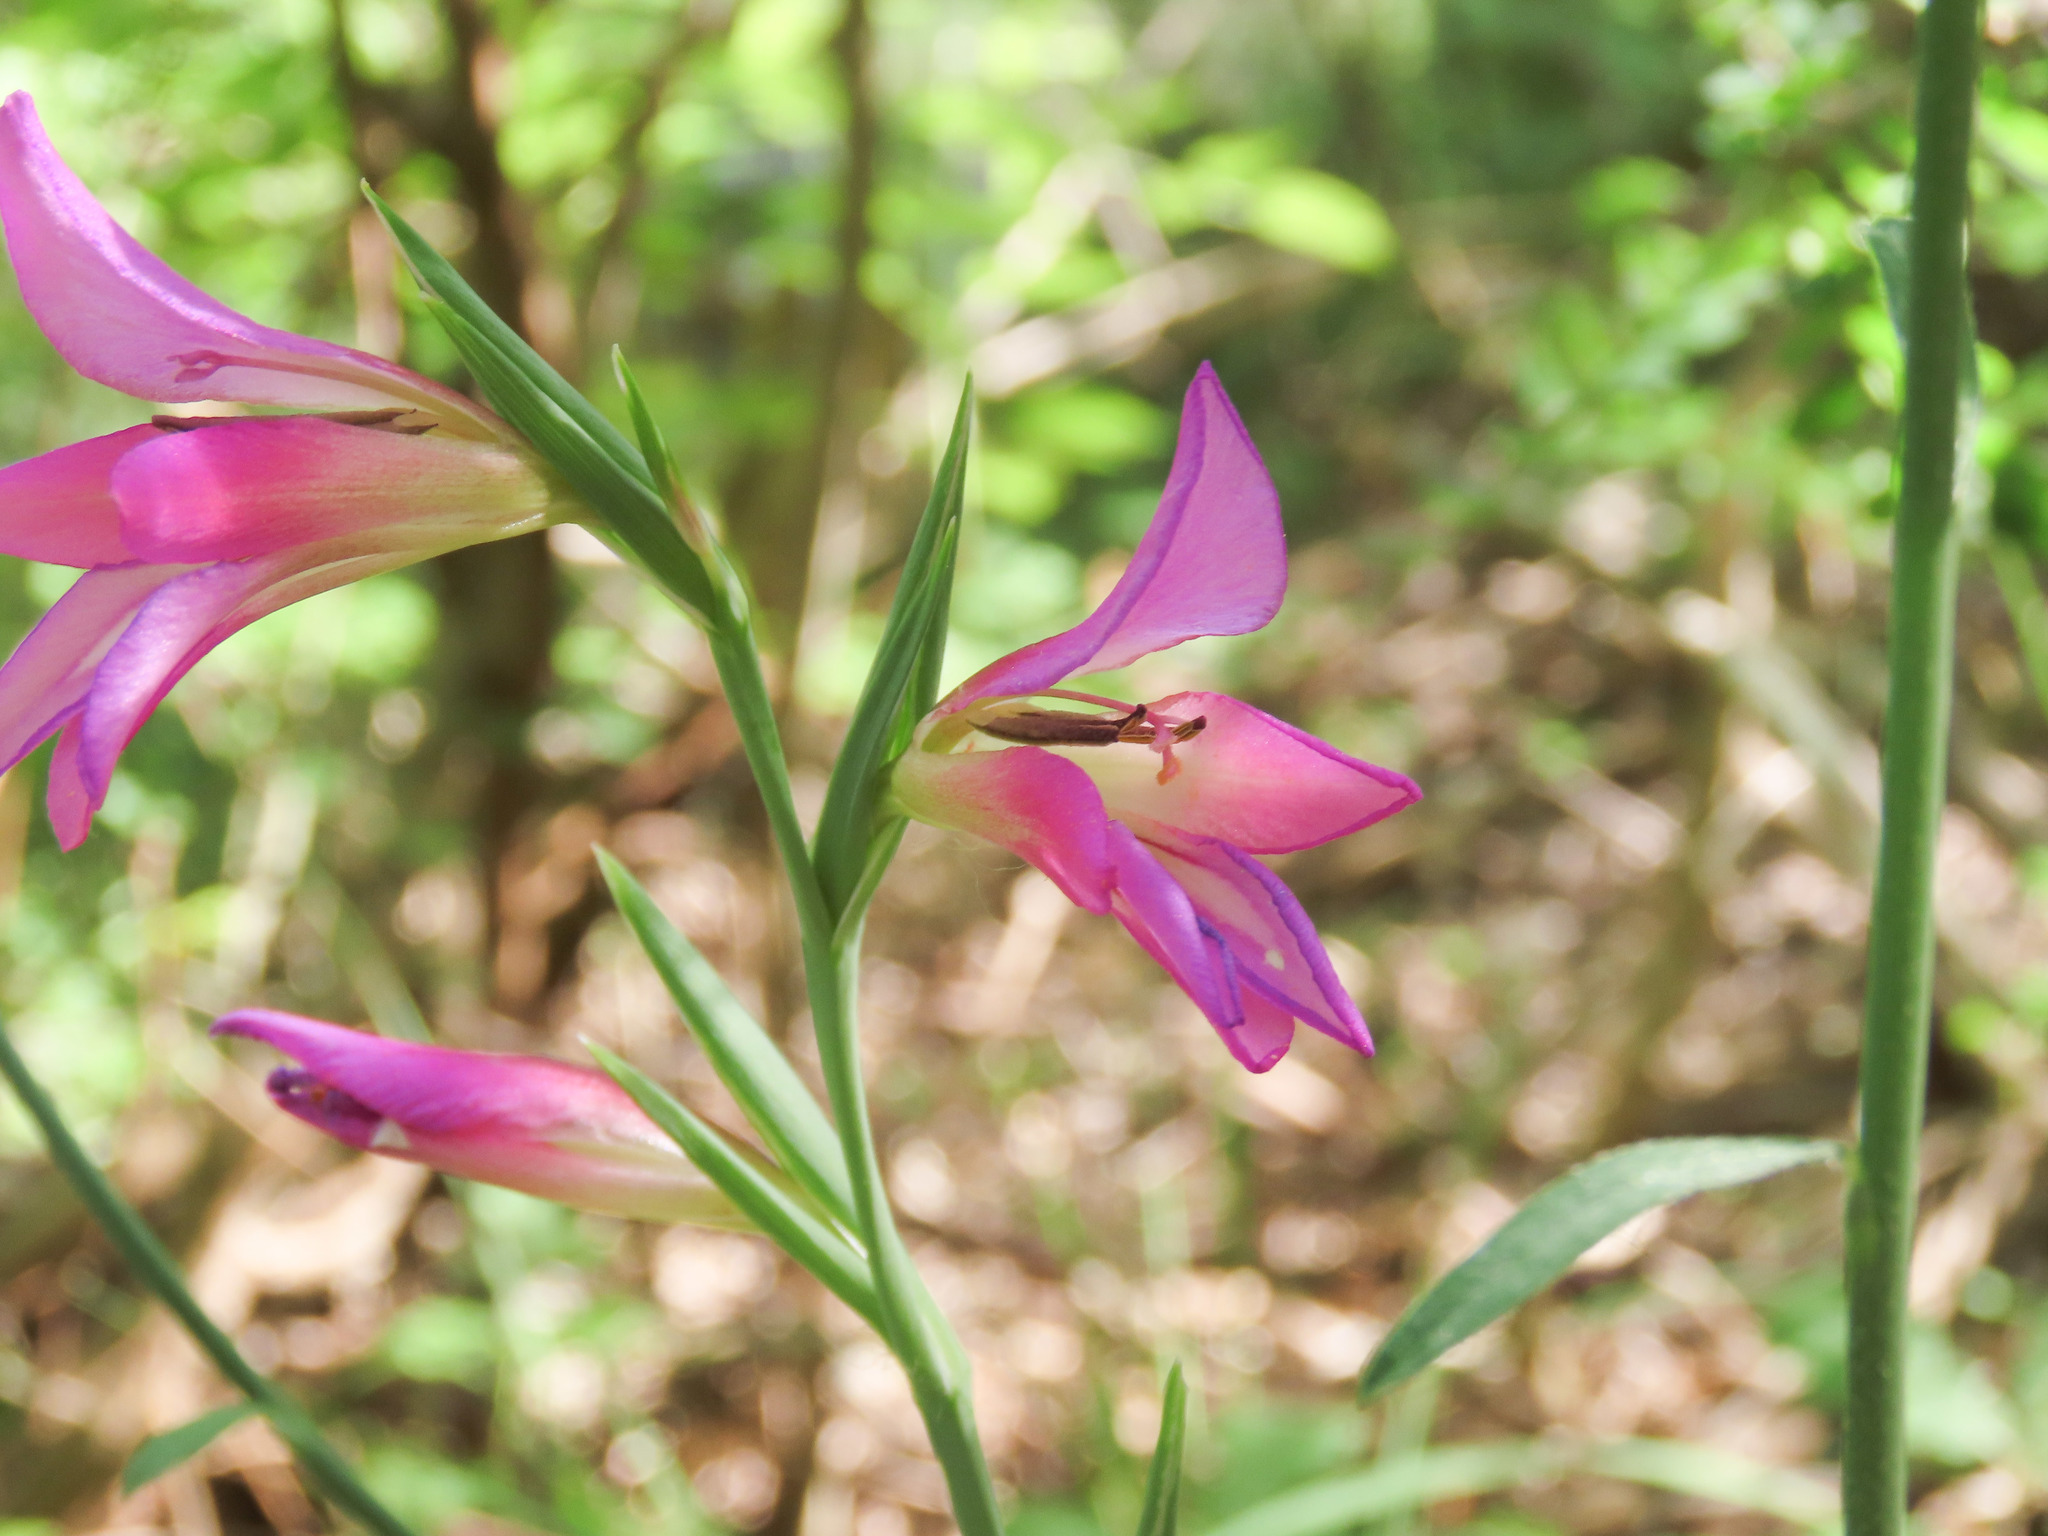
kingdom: Plantae
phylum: Tracheophyta
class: Liliopsida
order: Asparagales
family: Iridaceae
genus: Gladiolus
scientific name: Gladiolus italicus
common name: Field gladiolus
